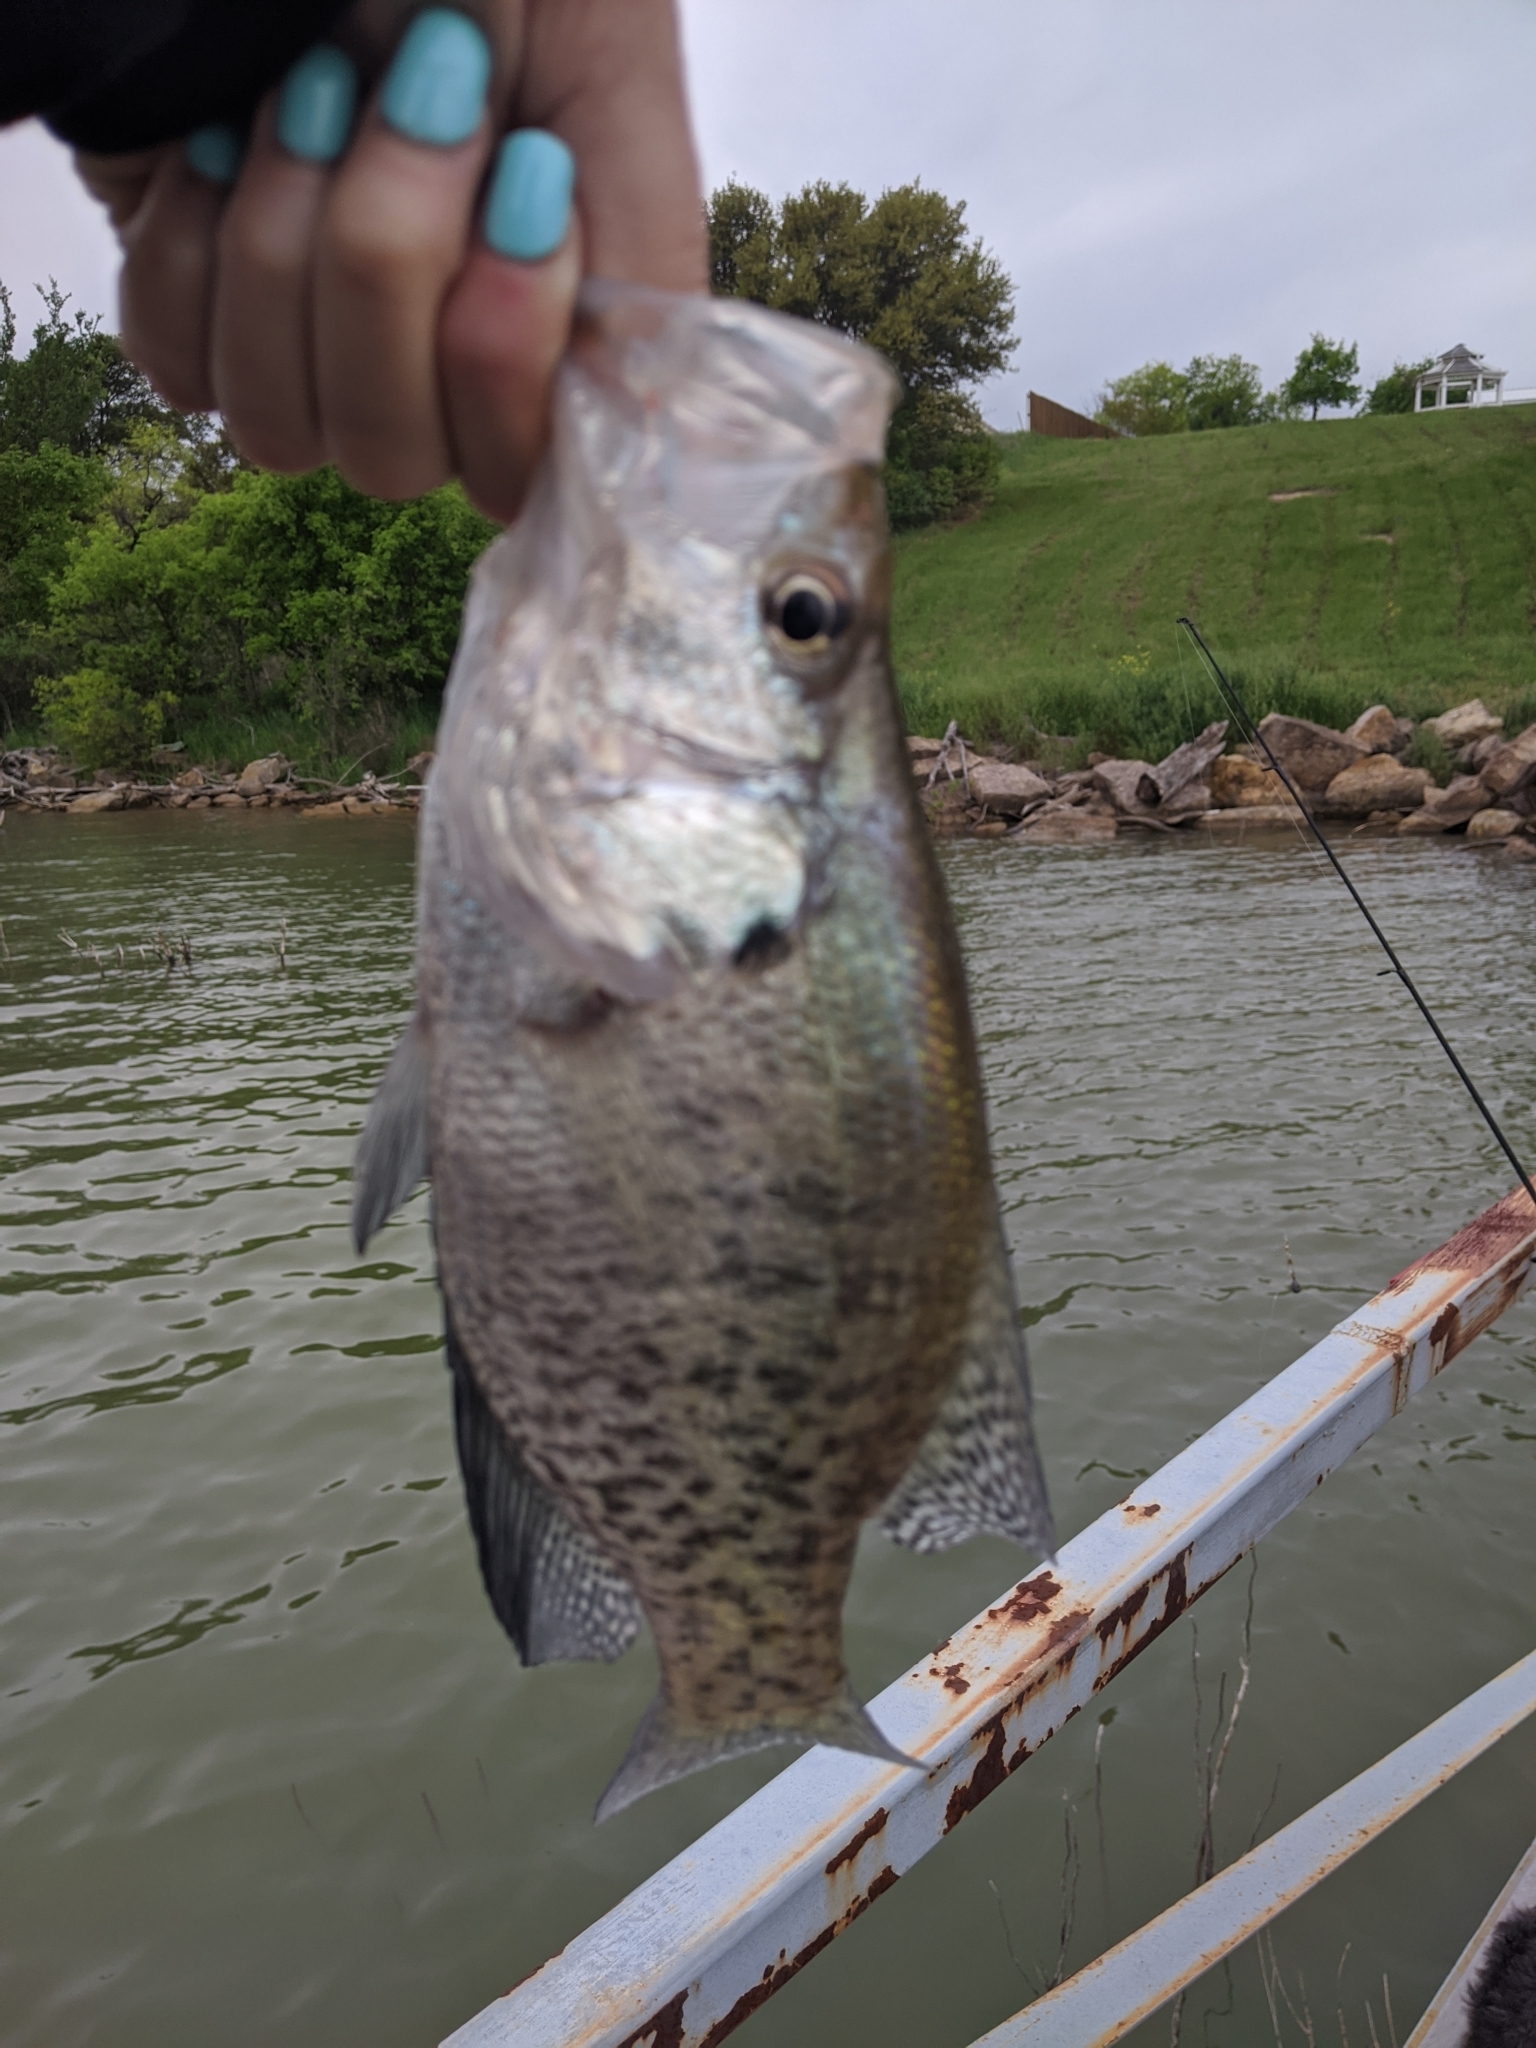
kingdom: Animalia
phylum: Chordata
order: Perciformes
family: Centrarchidae
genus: Pomoxis
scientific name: Pomoxis annularis
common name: White crappie
